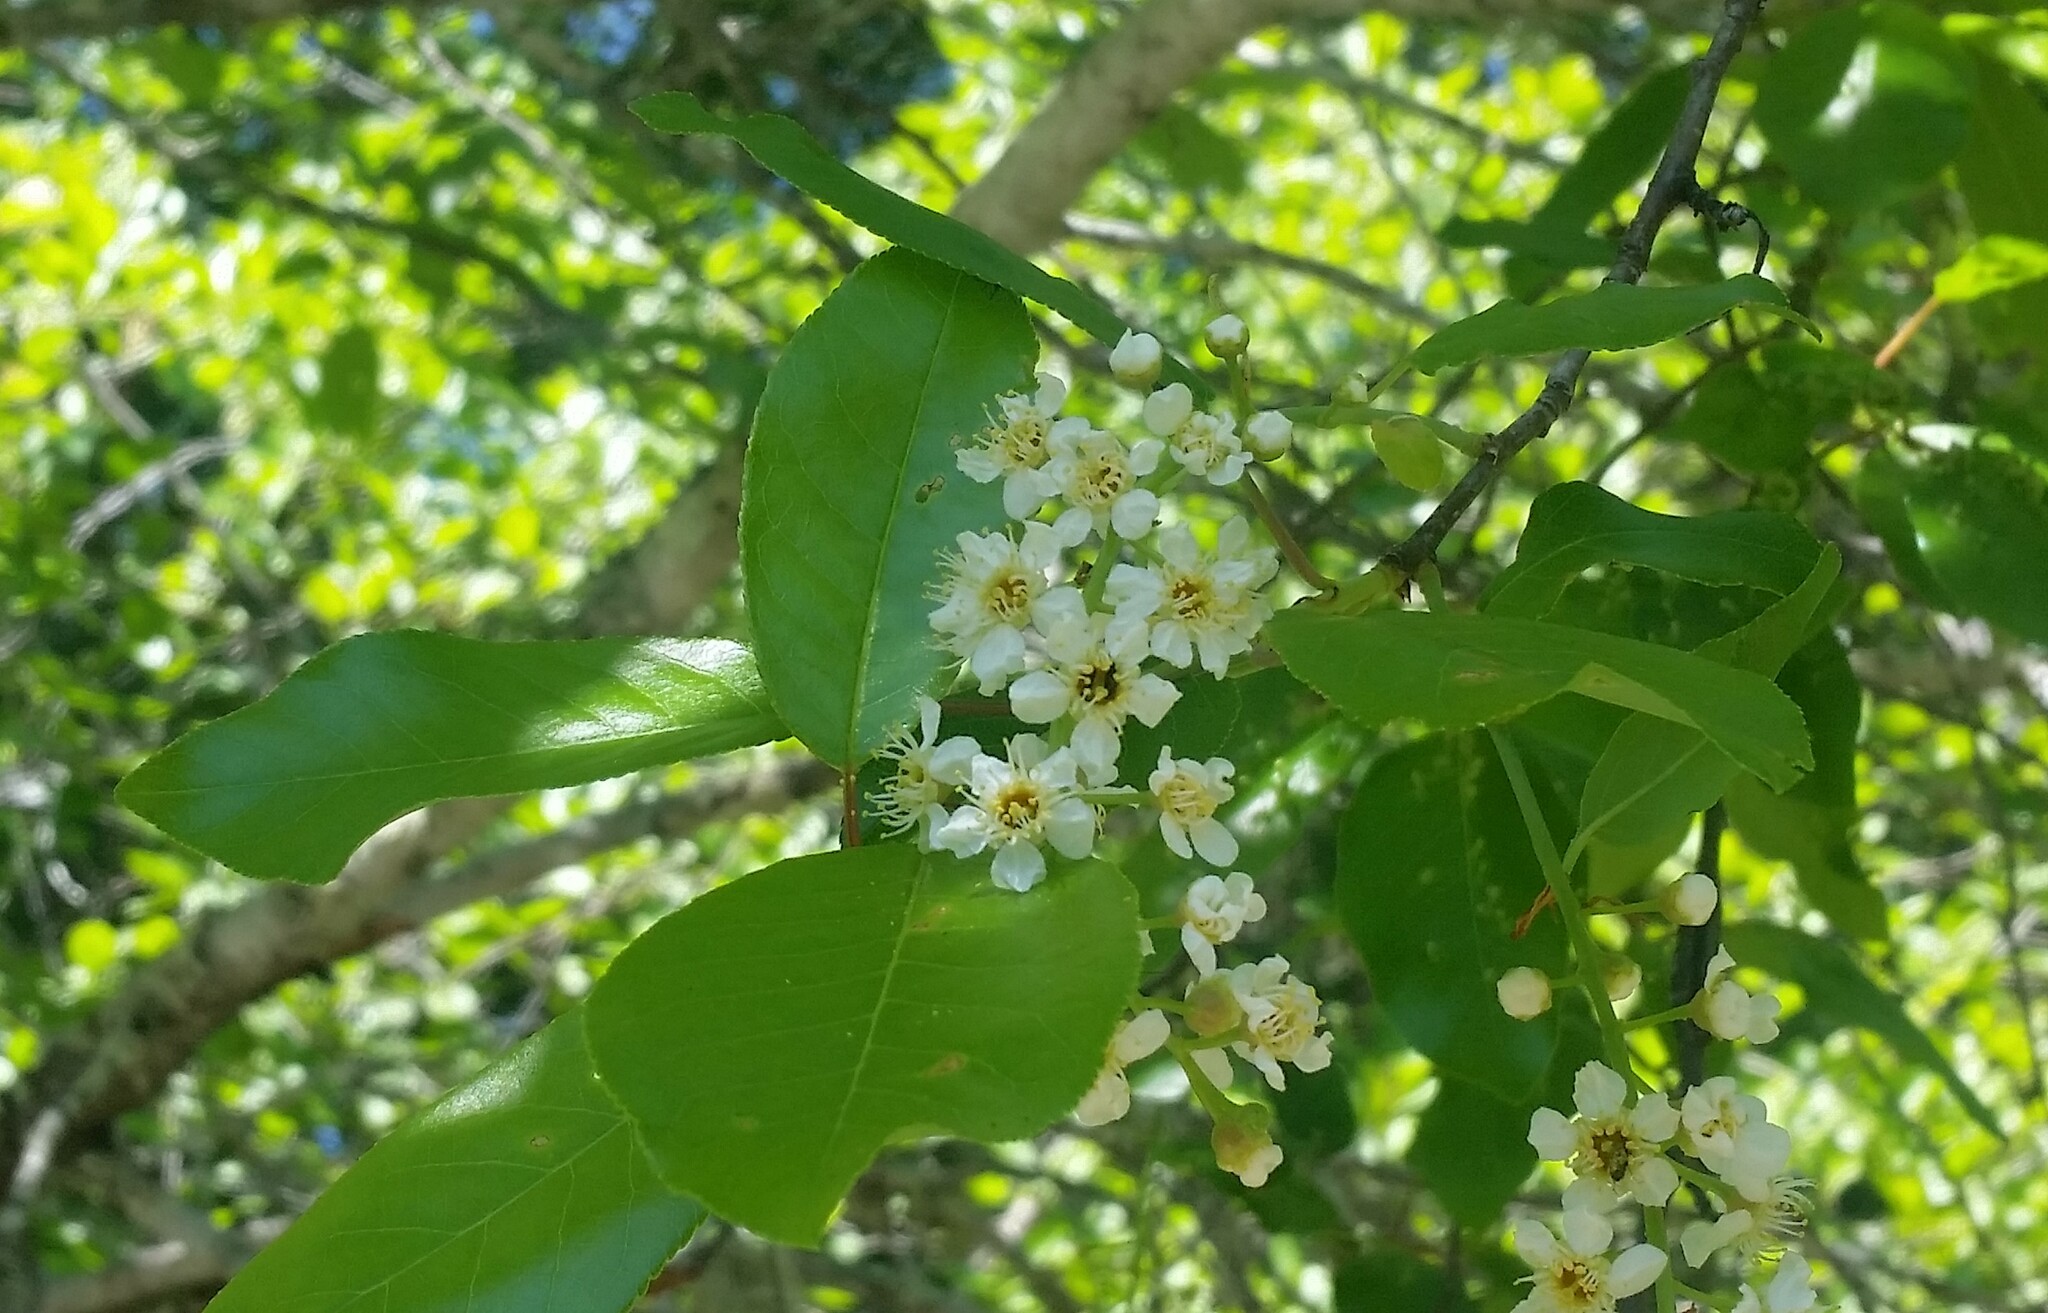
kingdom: Plantae
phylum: Tracheophyta
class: Magnoliopsida
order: Rosales
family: Rosaceae
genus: Prunus
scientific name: Prunus virginiana
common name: Chokecherry
